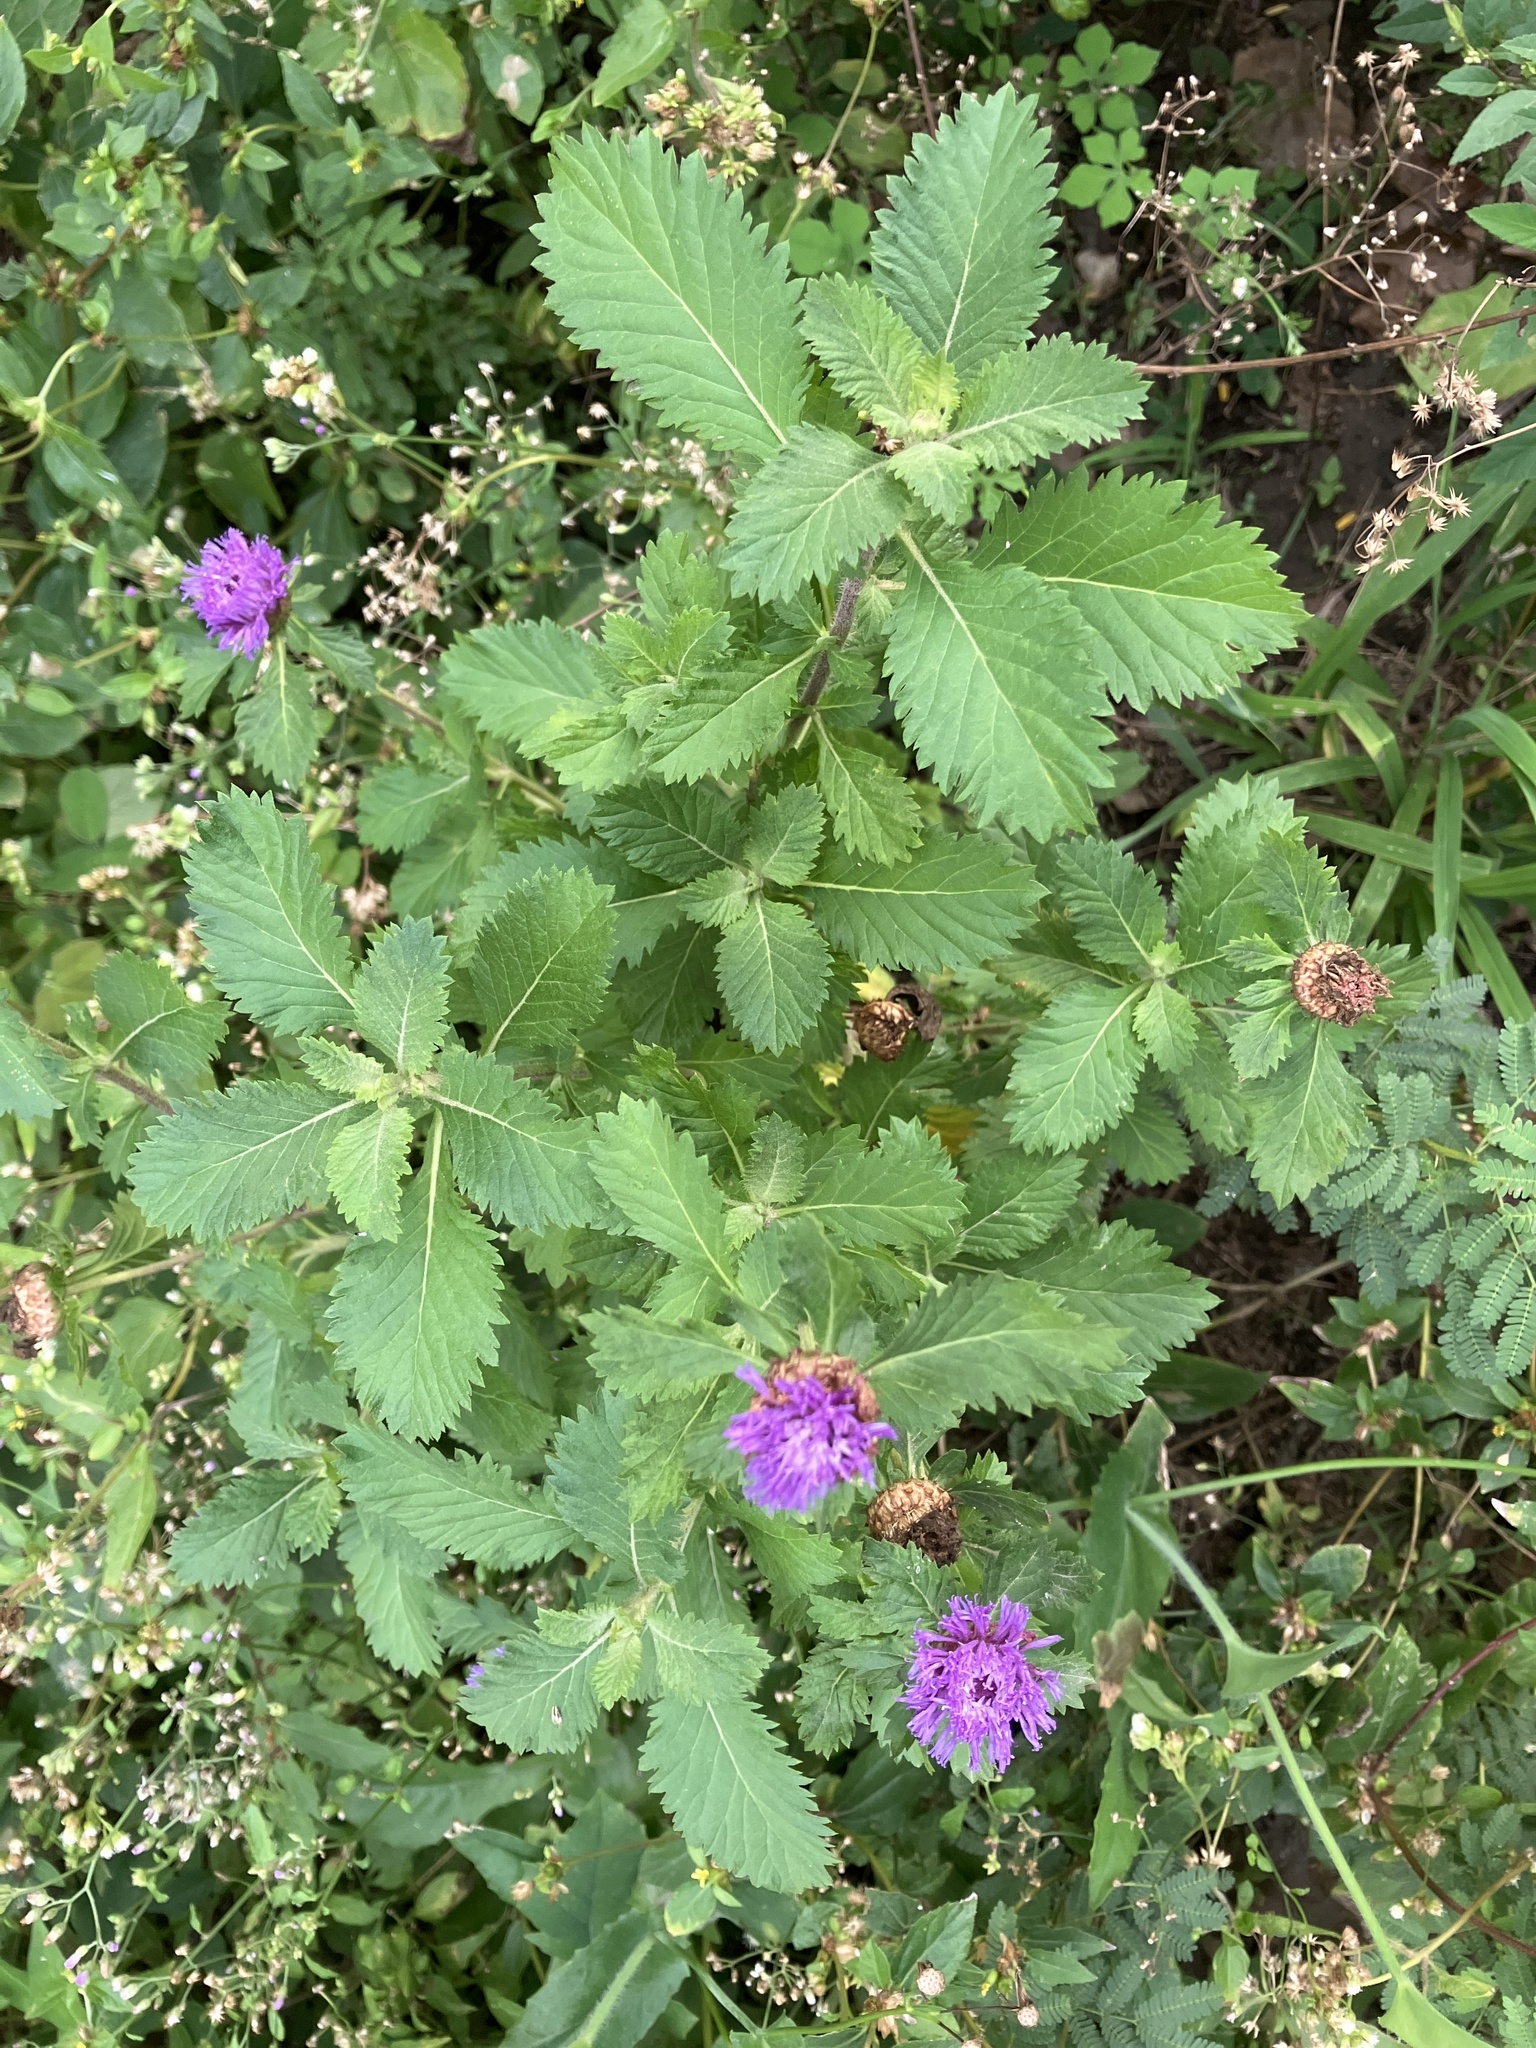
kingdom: Plantae
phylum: Tracheophyta
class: Magnoliopsida
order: Asterales
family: Asteraceae
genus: Centratherum
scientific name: Centratherum punctatum
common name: Larkdaisy
